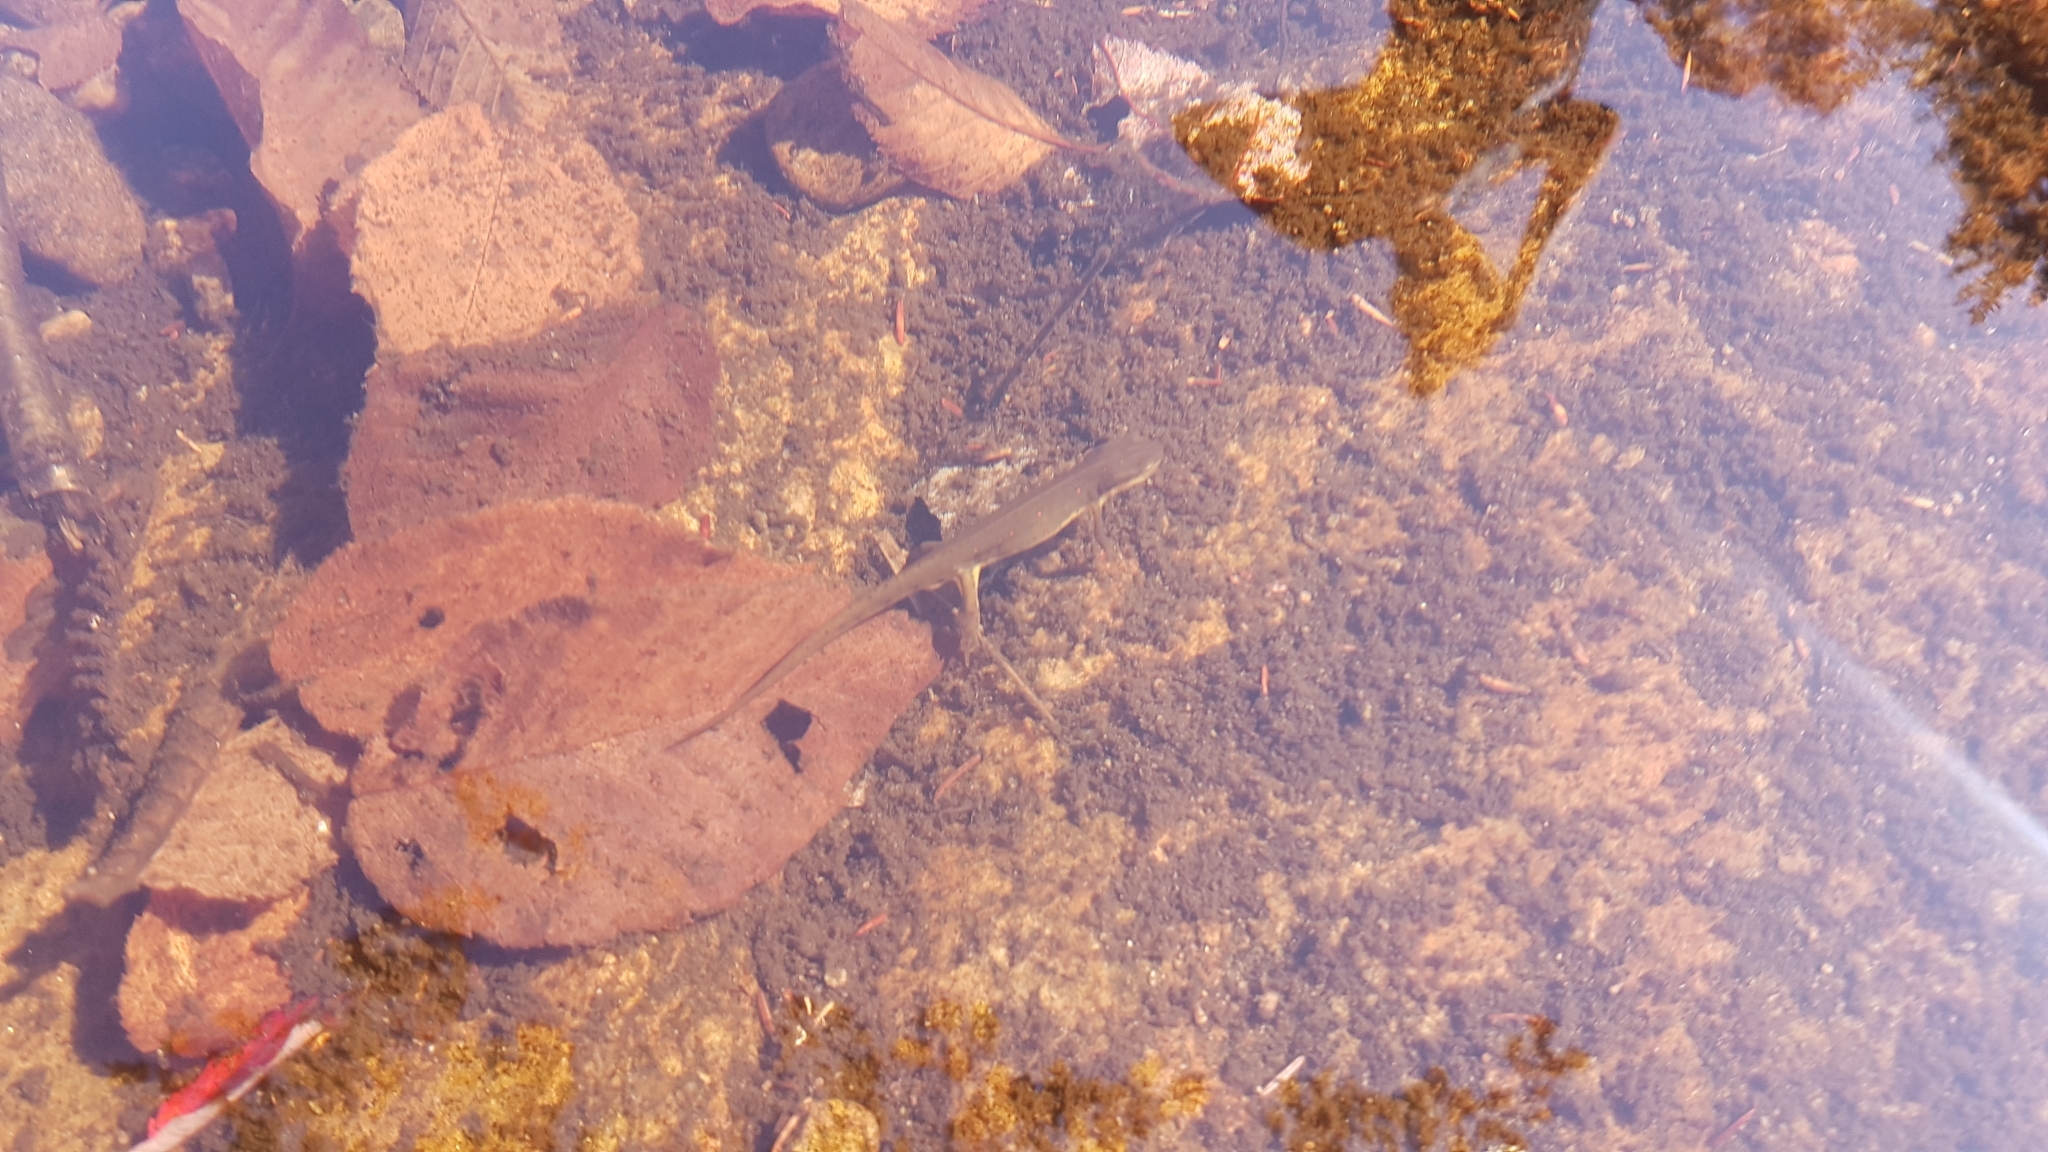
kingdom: Animalia
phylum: Chordata
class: Amphibia
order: Caudata
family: Salamandridae
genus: Notophthalmus
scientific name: Notophthalmus viridescens
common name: Eastern newt
